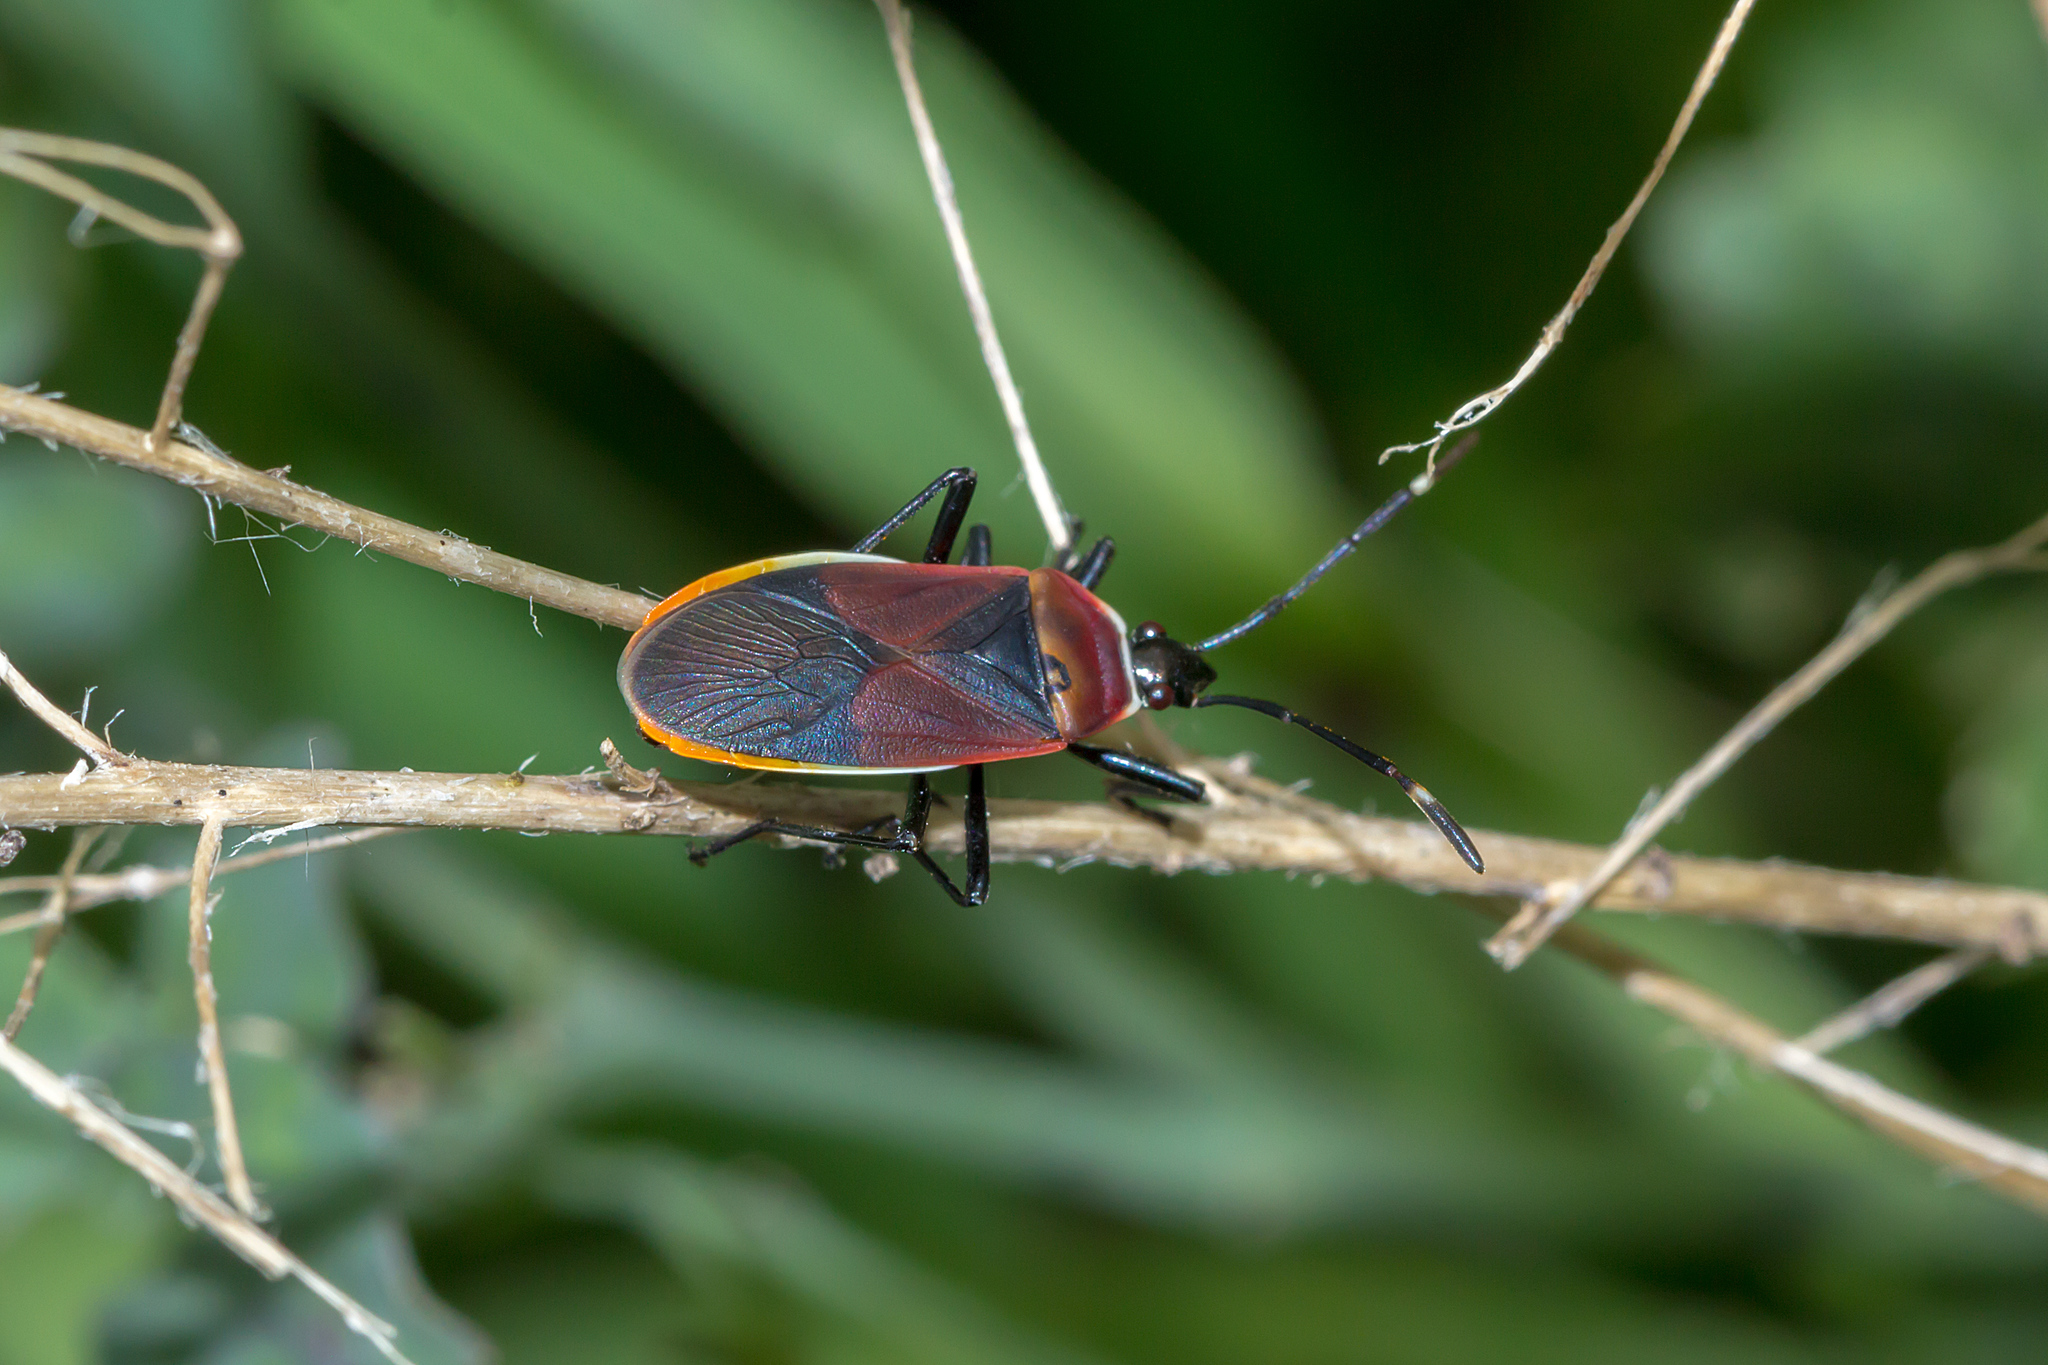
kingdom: Animalia
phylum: Arthropoda
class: Insecta
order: Hemiptera
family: Pyrrhocoridae
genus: Dindymus
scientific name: Dindymus
